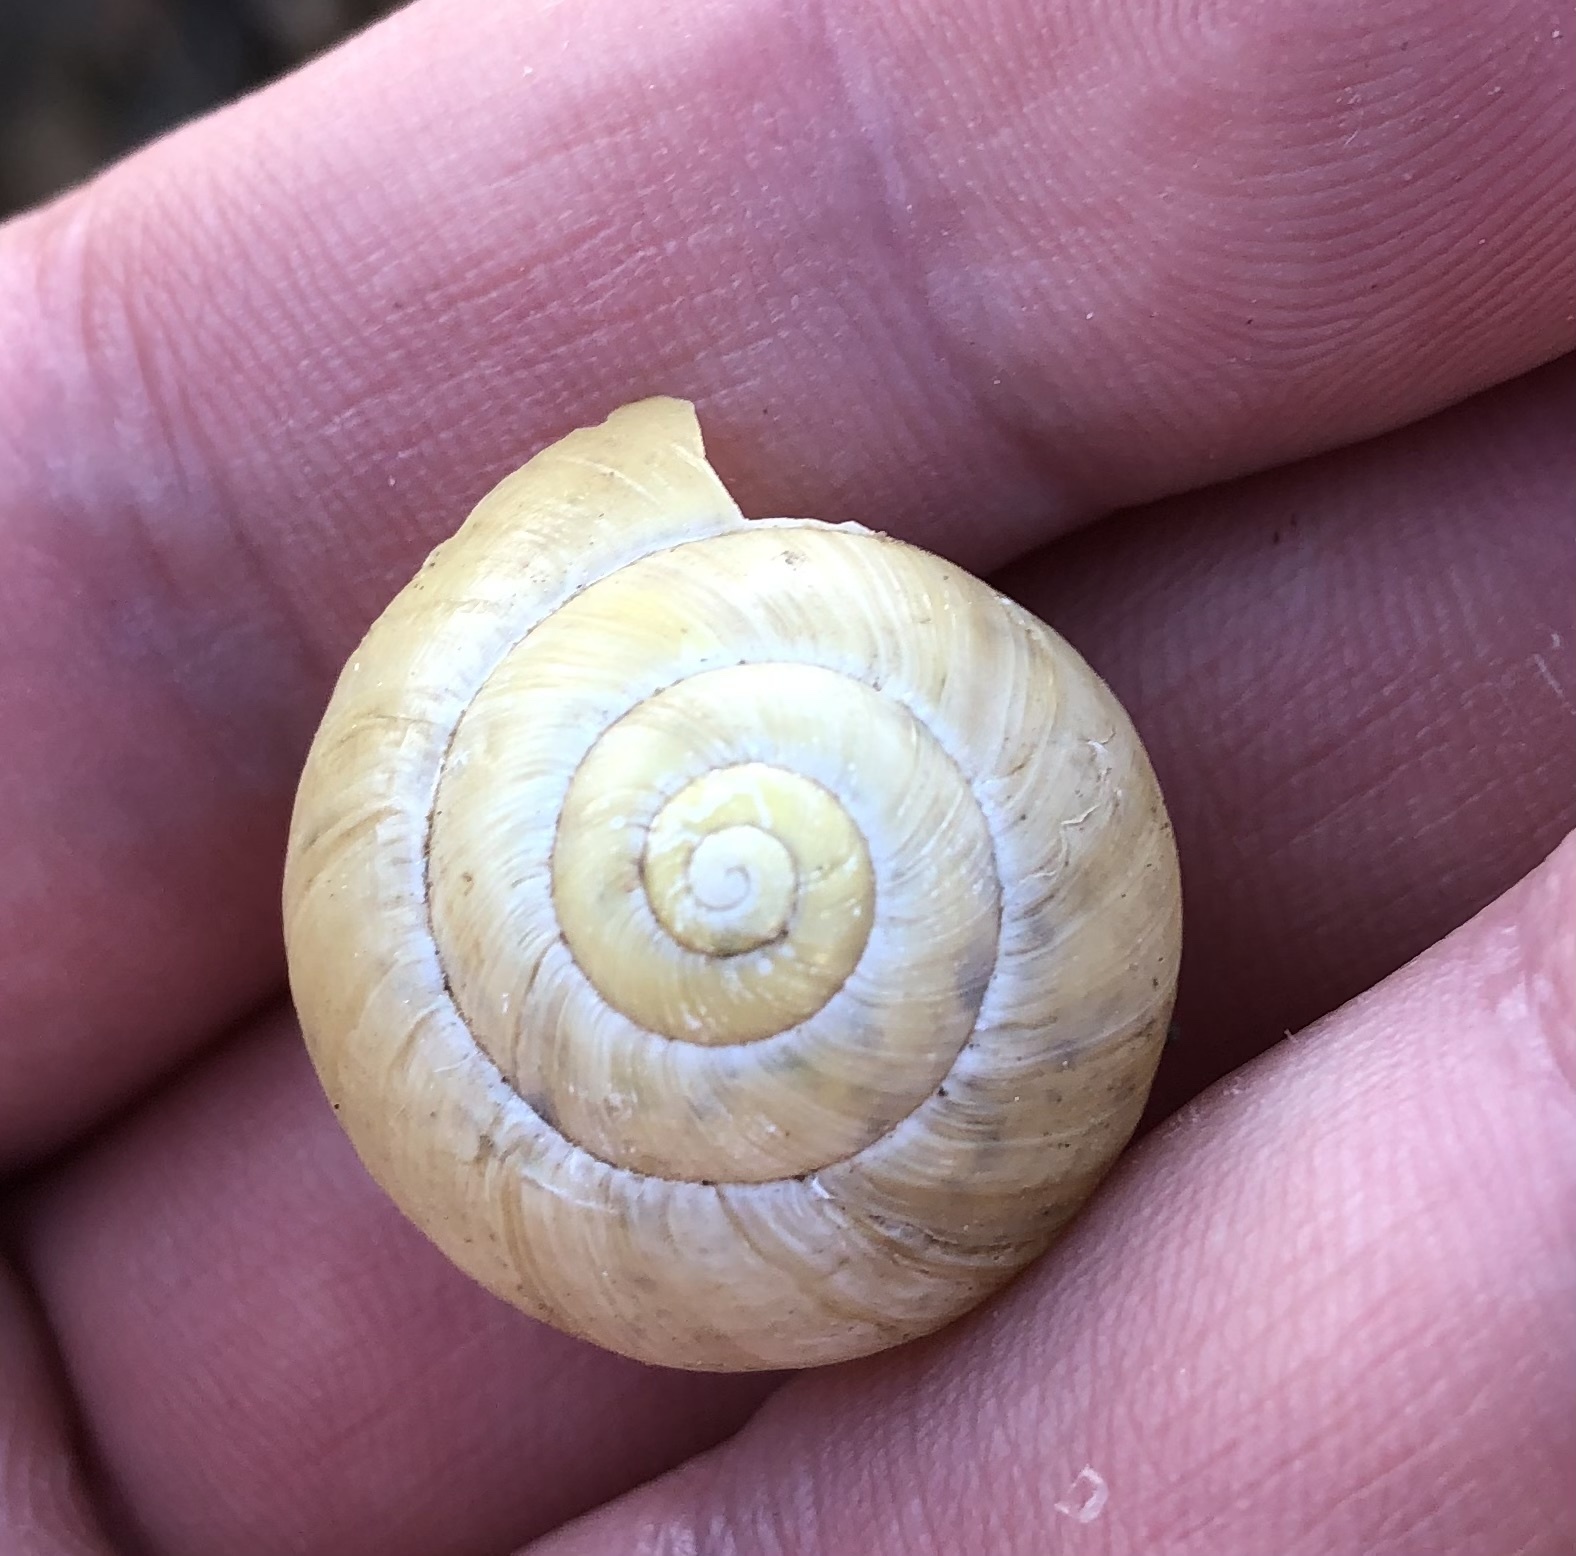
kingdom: Animalia
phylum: Mollusca
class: Gastropoda
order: Stylommatophora
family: Helicidae
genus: Cepaea
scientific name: Cepaea nemoralis
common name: Grovesnail
